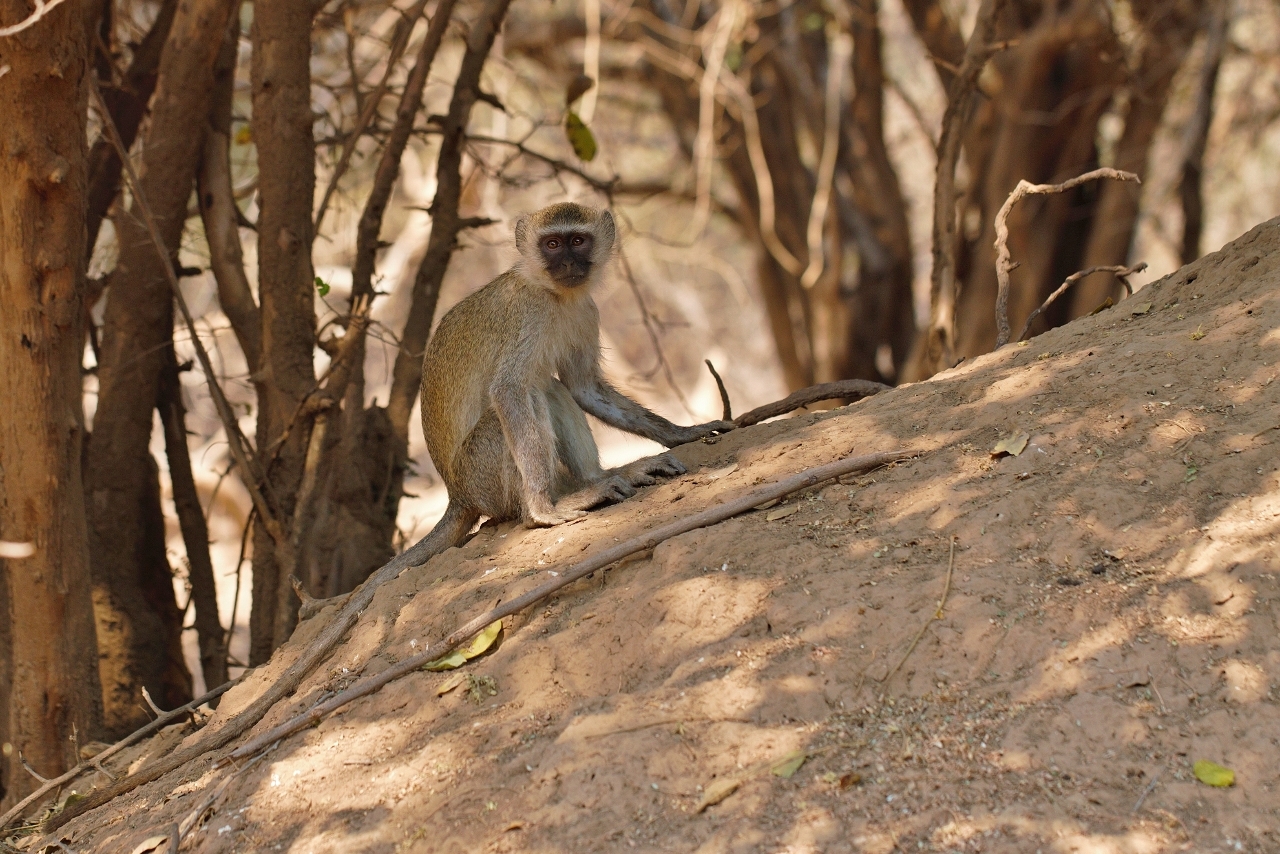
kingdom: Animalia
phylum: Chordata
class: Mammalia
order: Primates
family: Cercopithecidae
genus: Chlorocebus
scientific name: Chlorocebus pygerythrus
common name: Vervet monkey
